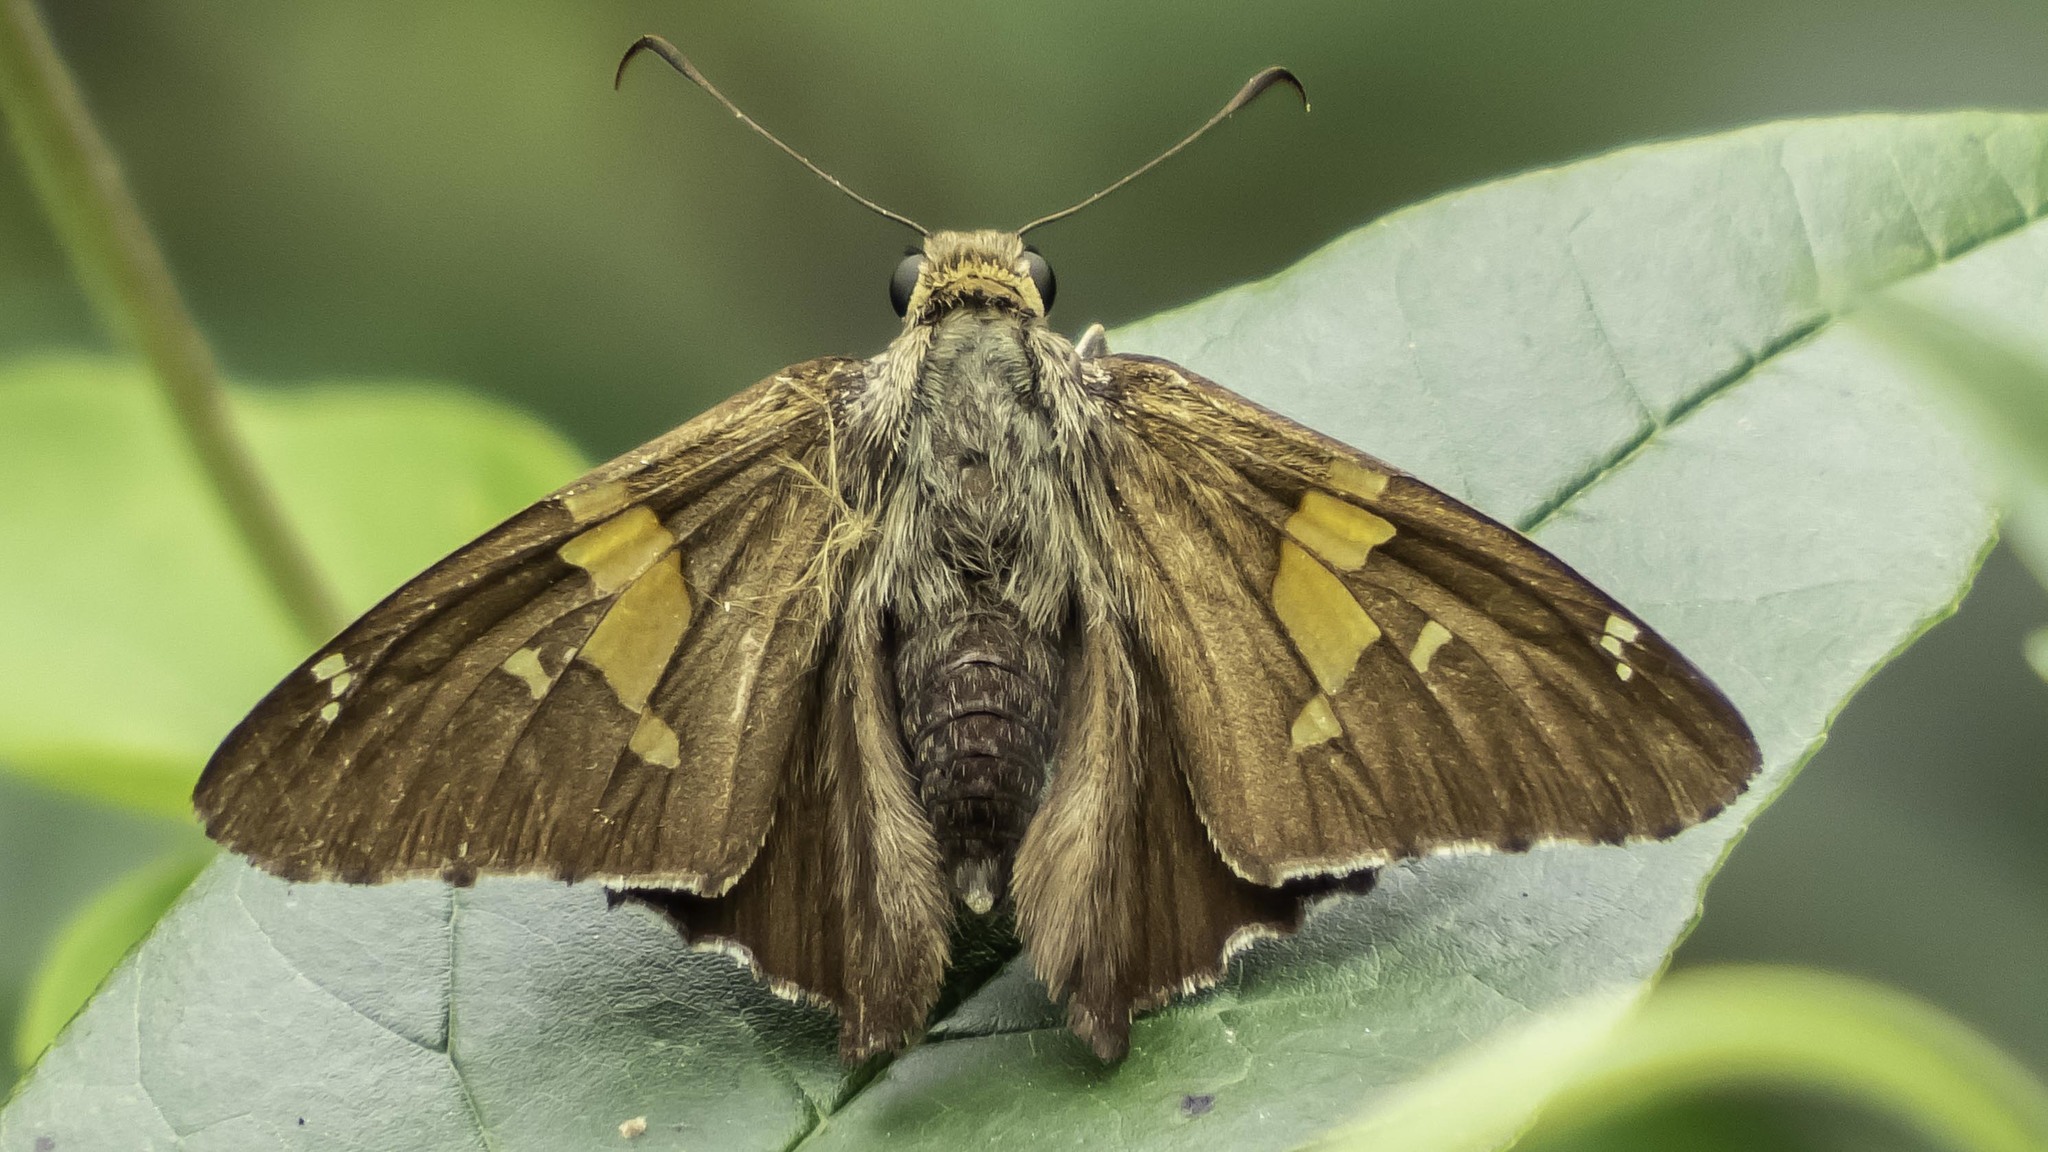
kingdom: Animalia
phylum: Arthropoda
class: Insecta
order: Lepidoptera
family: Hesperiidae
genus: Epargyreus
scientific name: Epargyreus clarus
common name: Silver-spotted skipper
